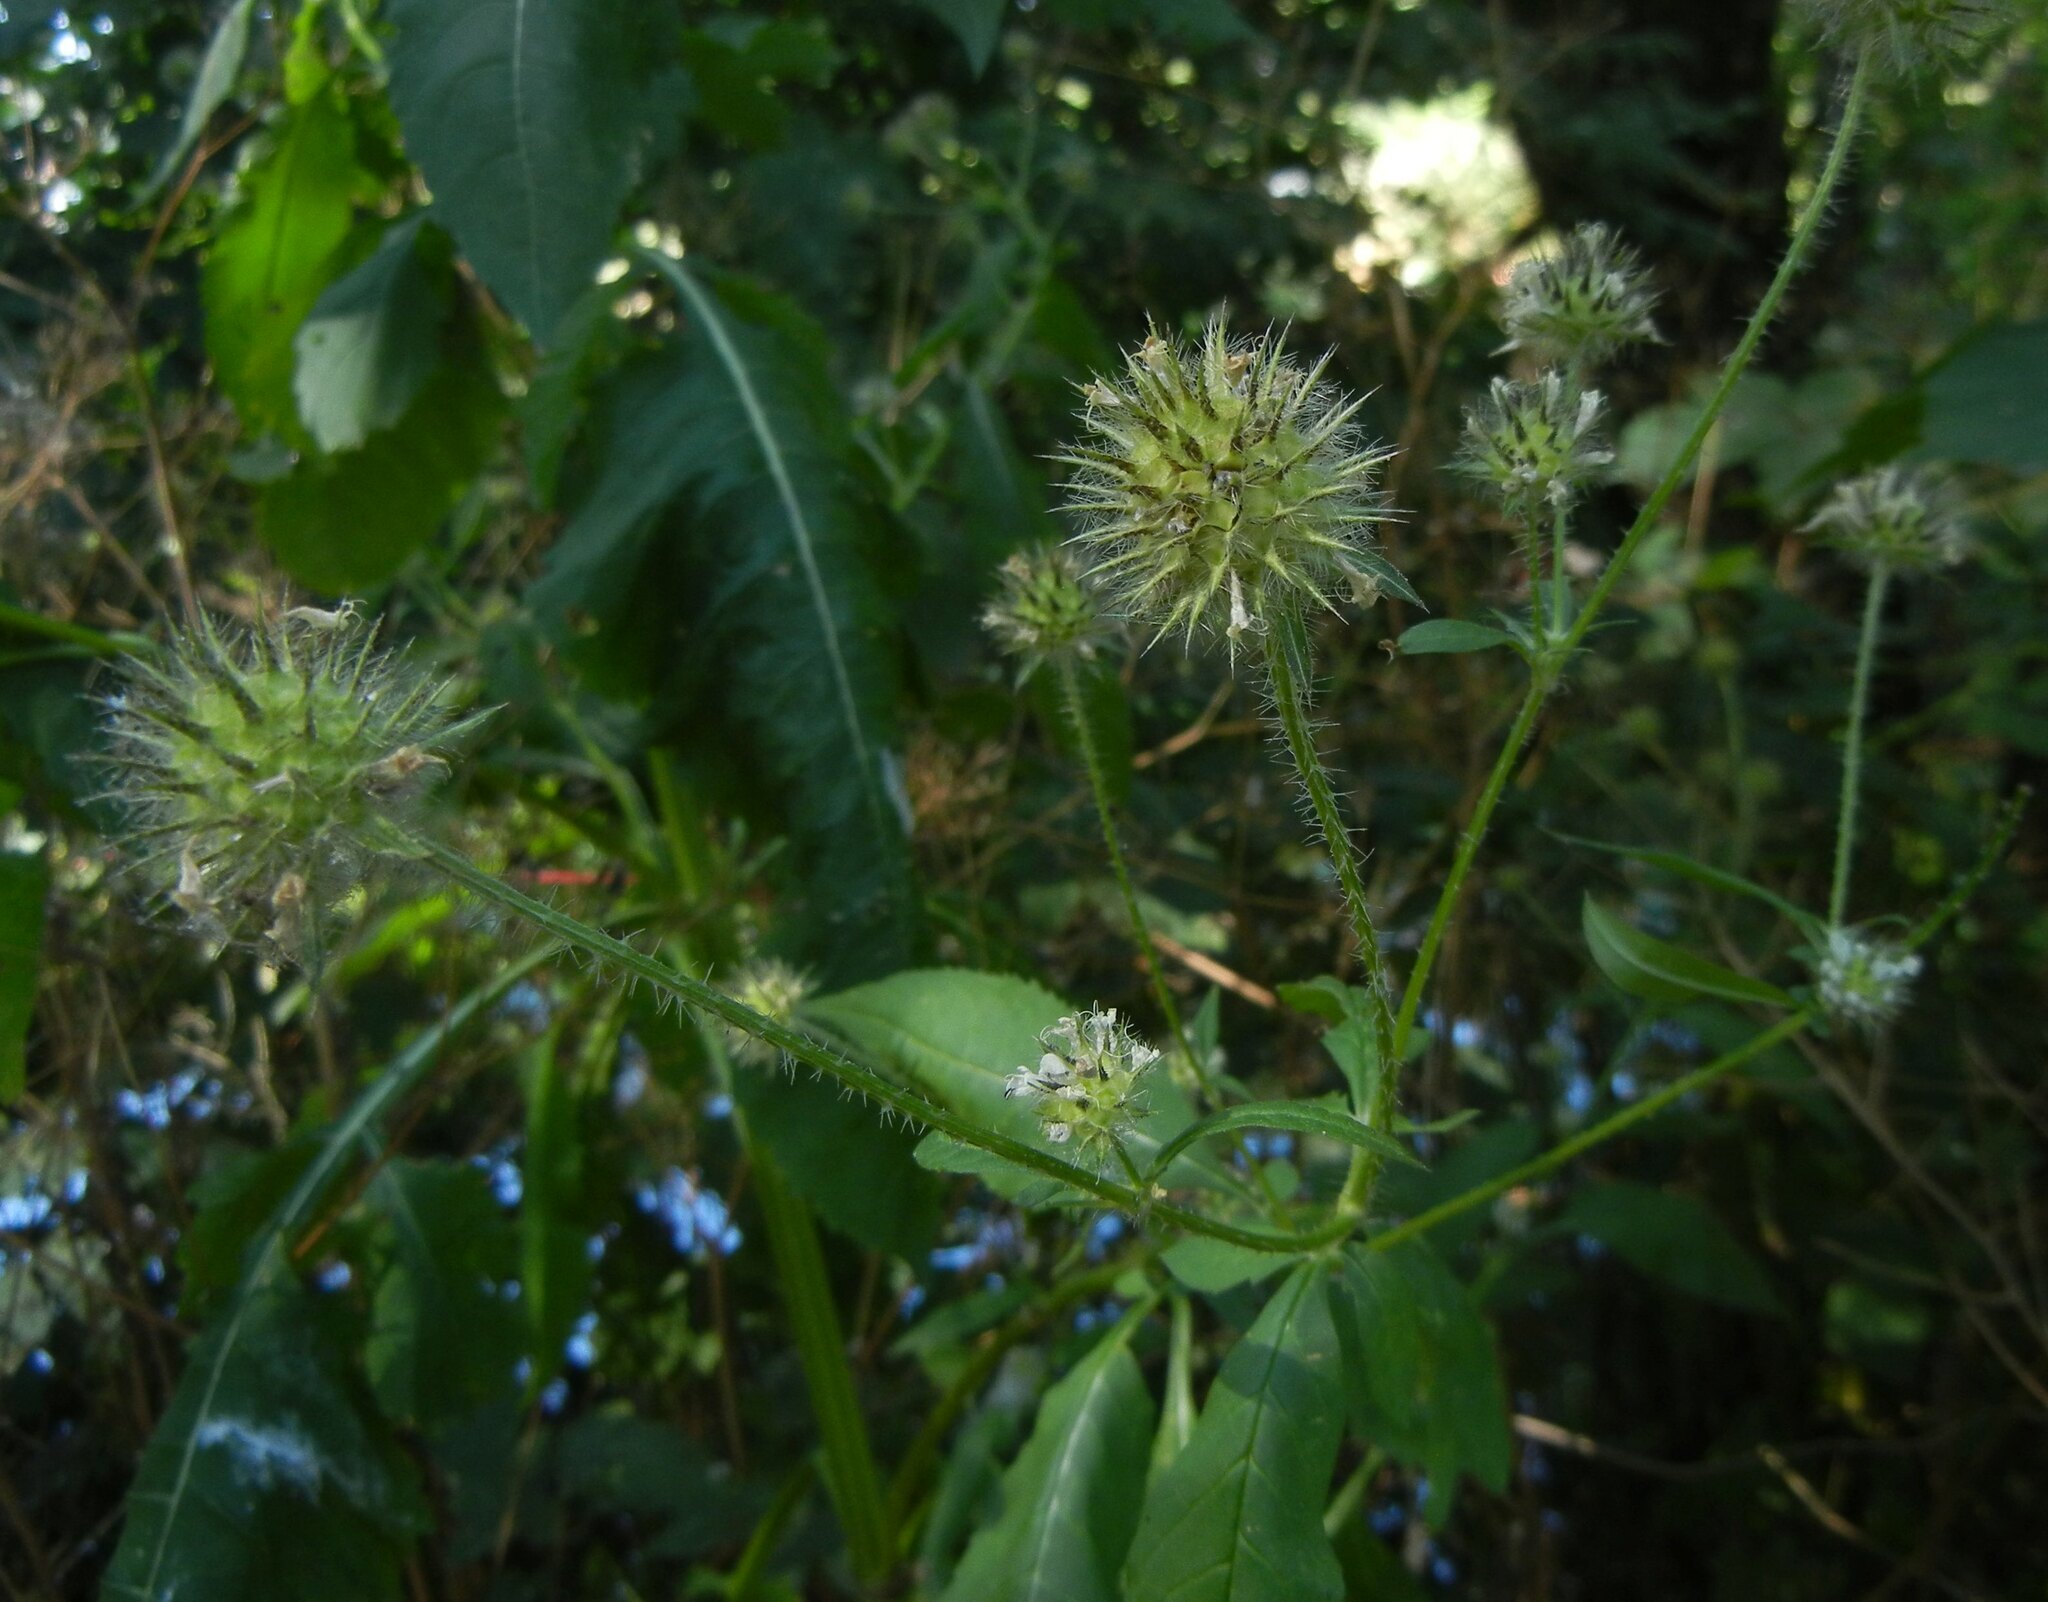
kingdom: Plantae
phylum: Tracheophyta
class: Magnoliopsida
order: Dipsacales
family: Caprifoliaceae
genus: Dipsacus
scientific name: Dipsacus pilosus
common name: Small teasel
